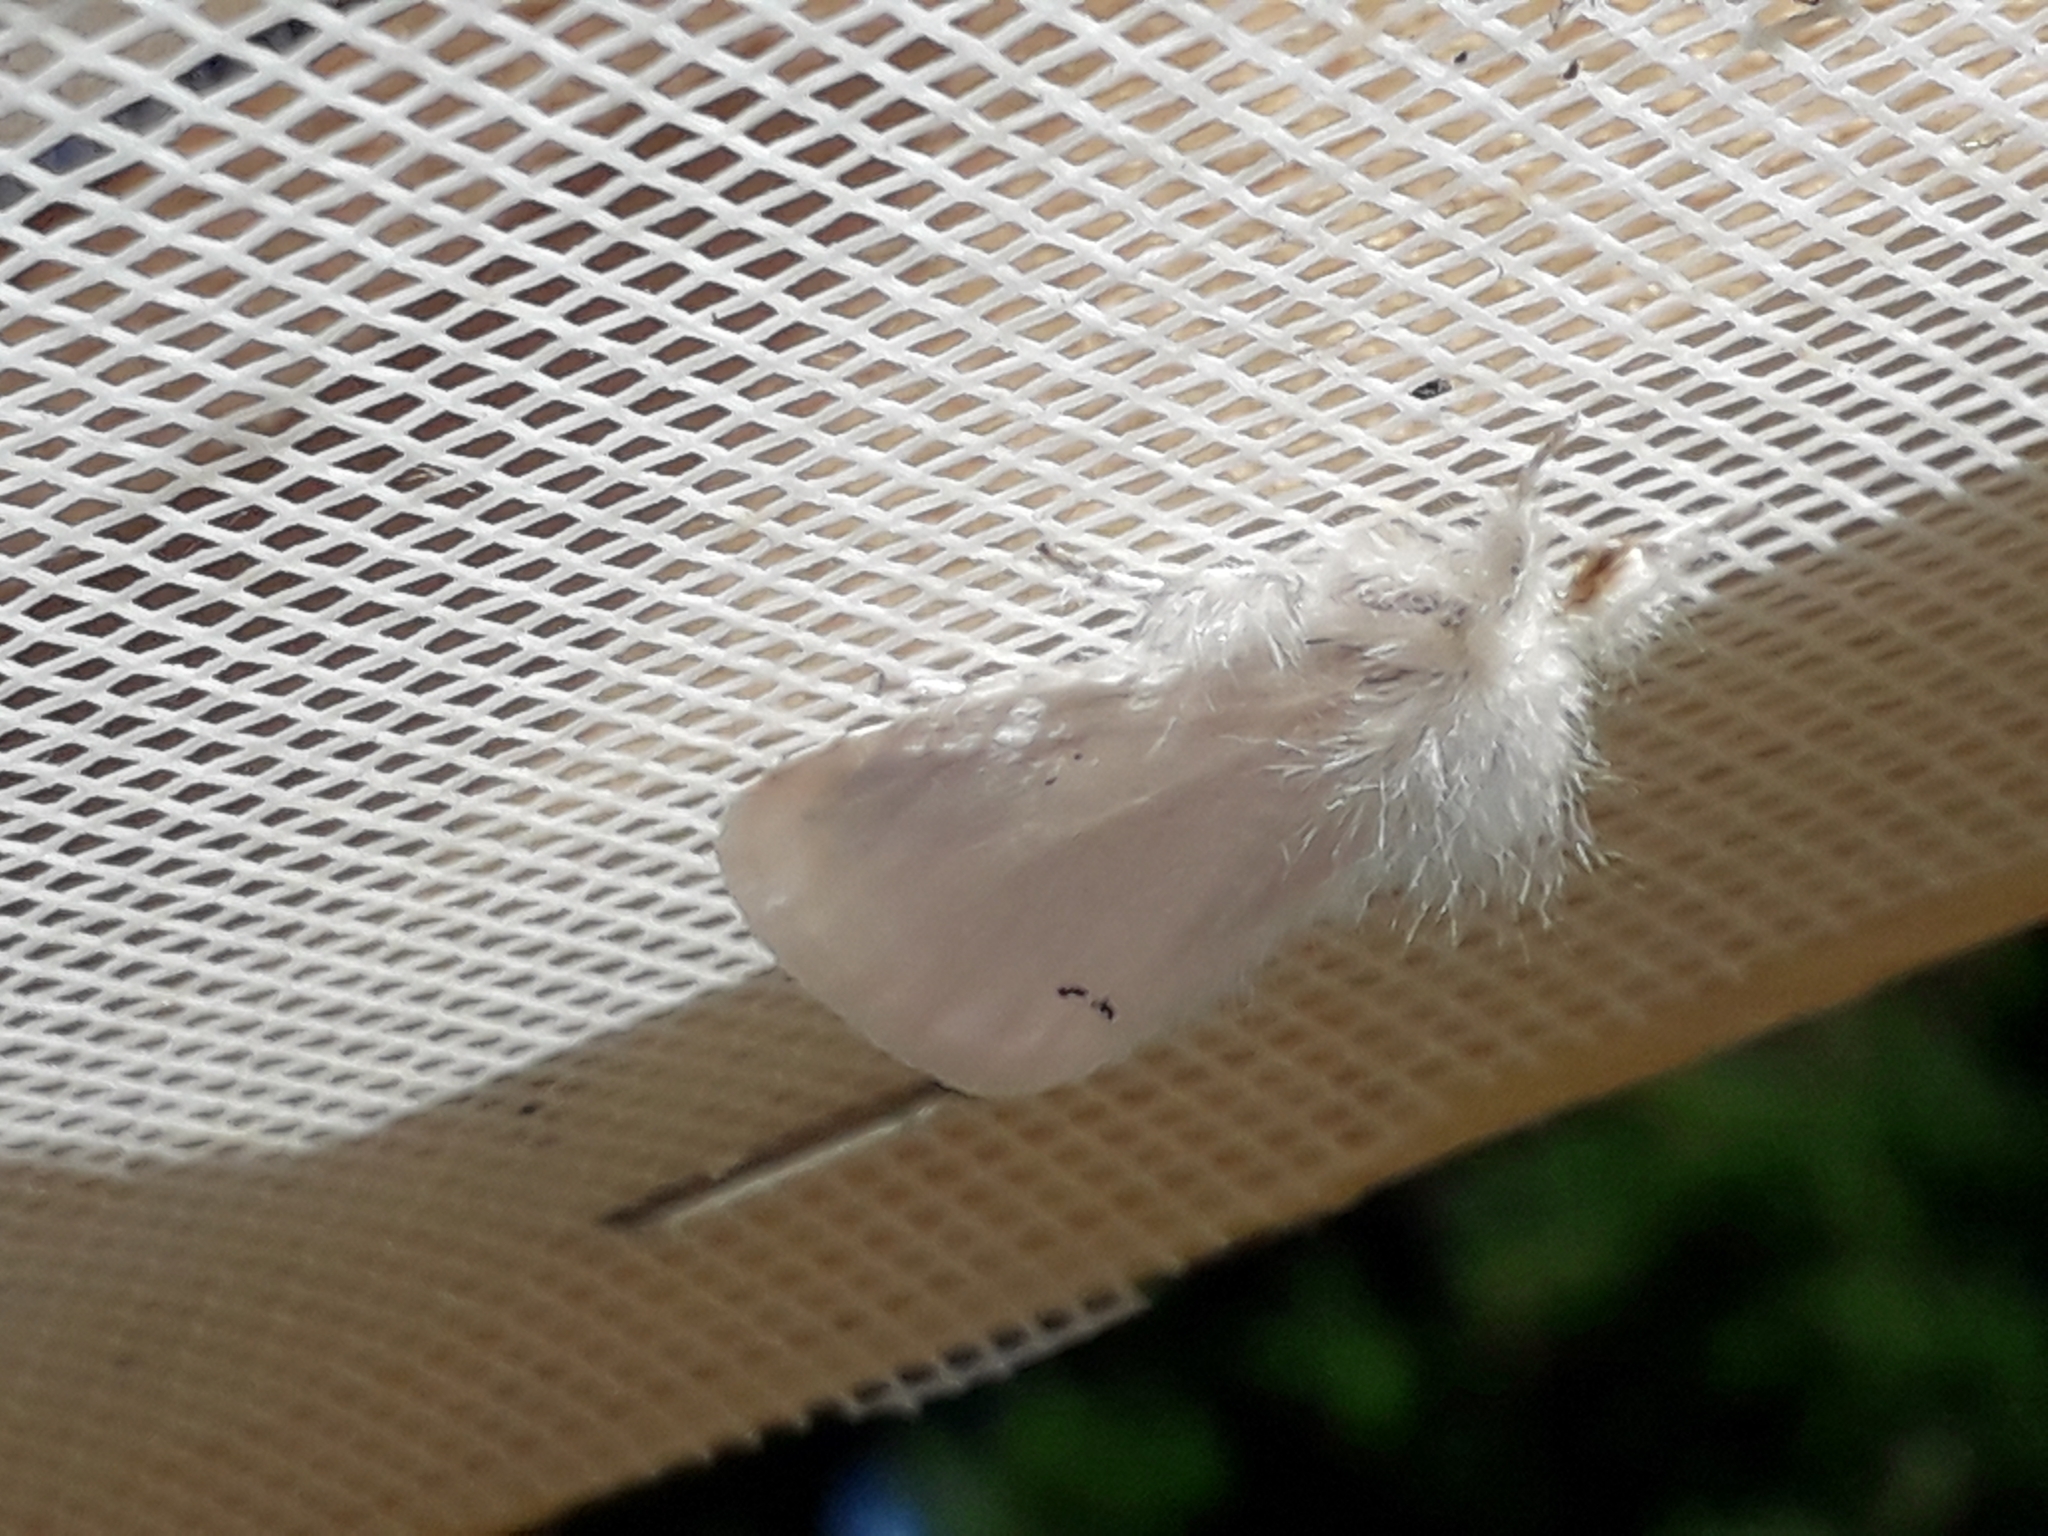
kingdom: Animalia
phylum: Arthropoda
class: Insecta
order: Lepidoptera
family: Erebidae
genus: Euproctis
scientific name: Euproctis chrysorrhoea
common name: Brown-tail
